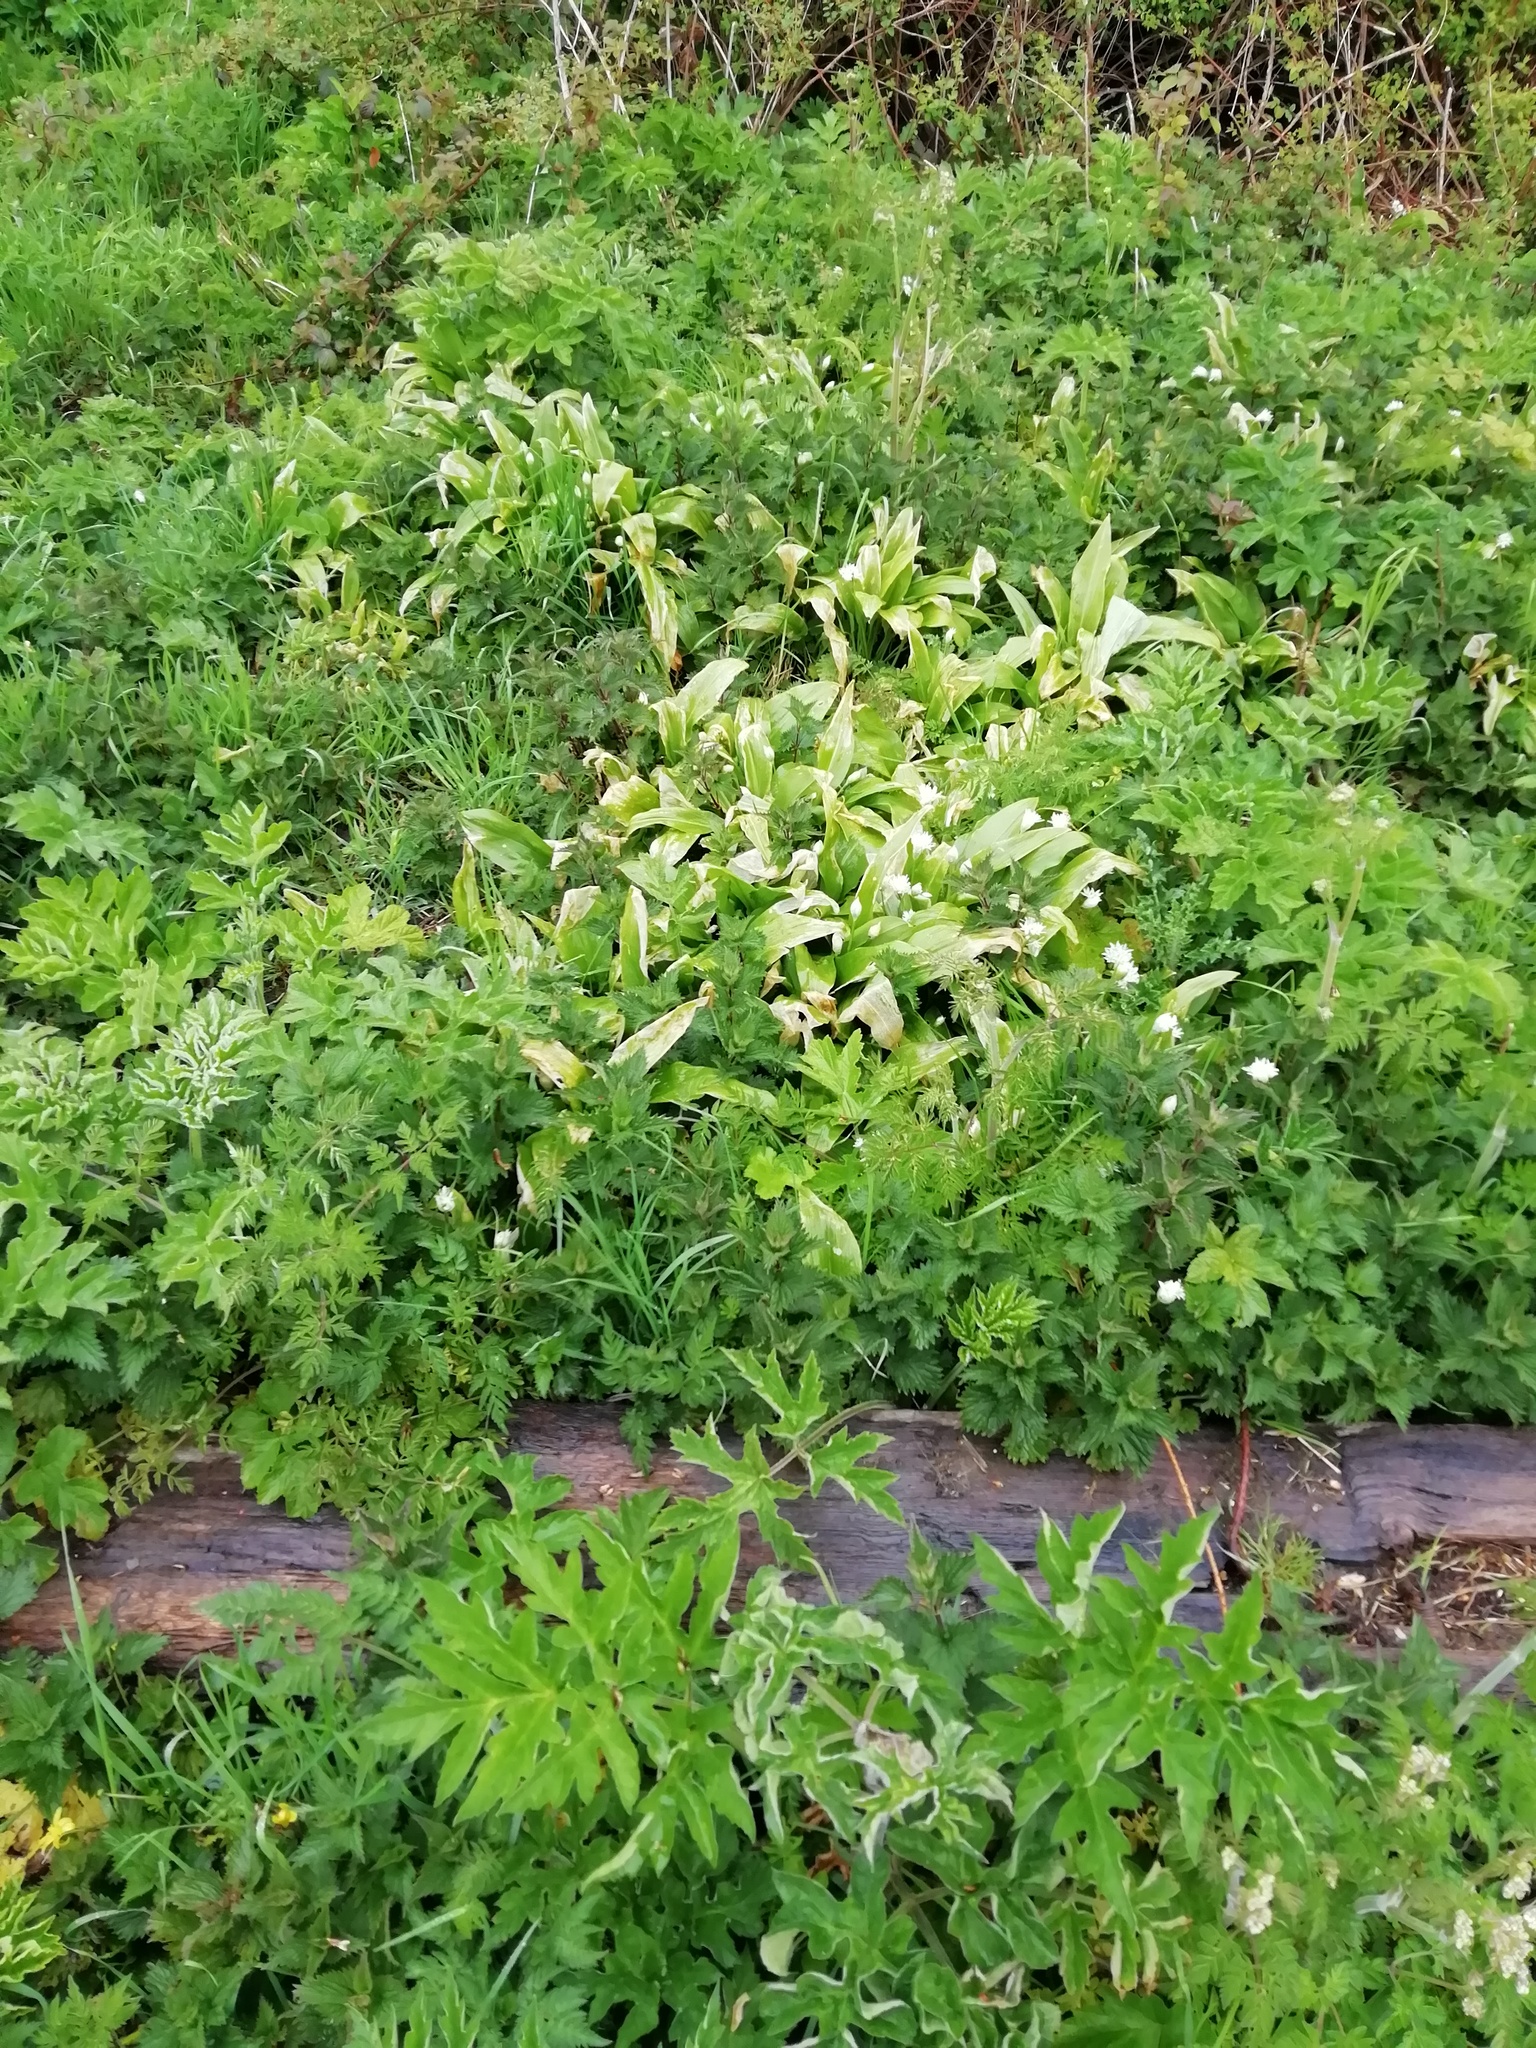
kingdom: Plantae
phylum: Tracheophyta
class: Liliopsida
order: Asparagales
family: Amaryllidaceae
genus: Allium
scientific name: Allium ursinum
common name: Ramsons
